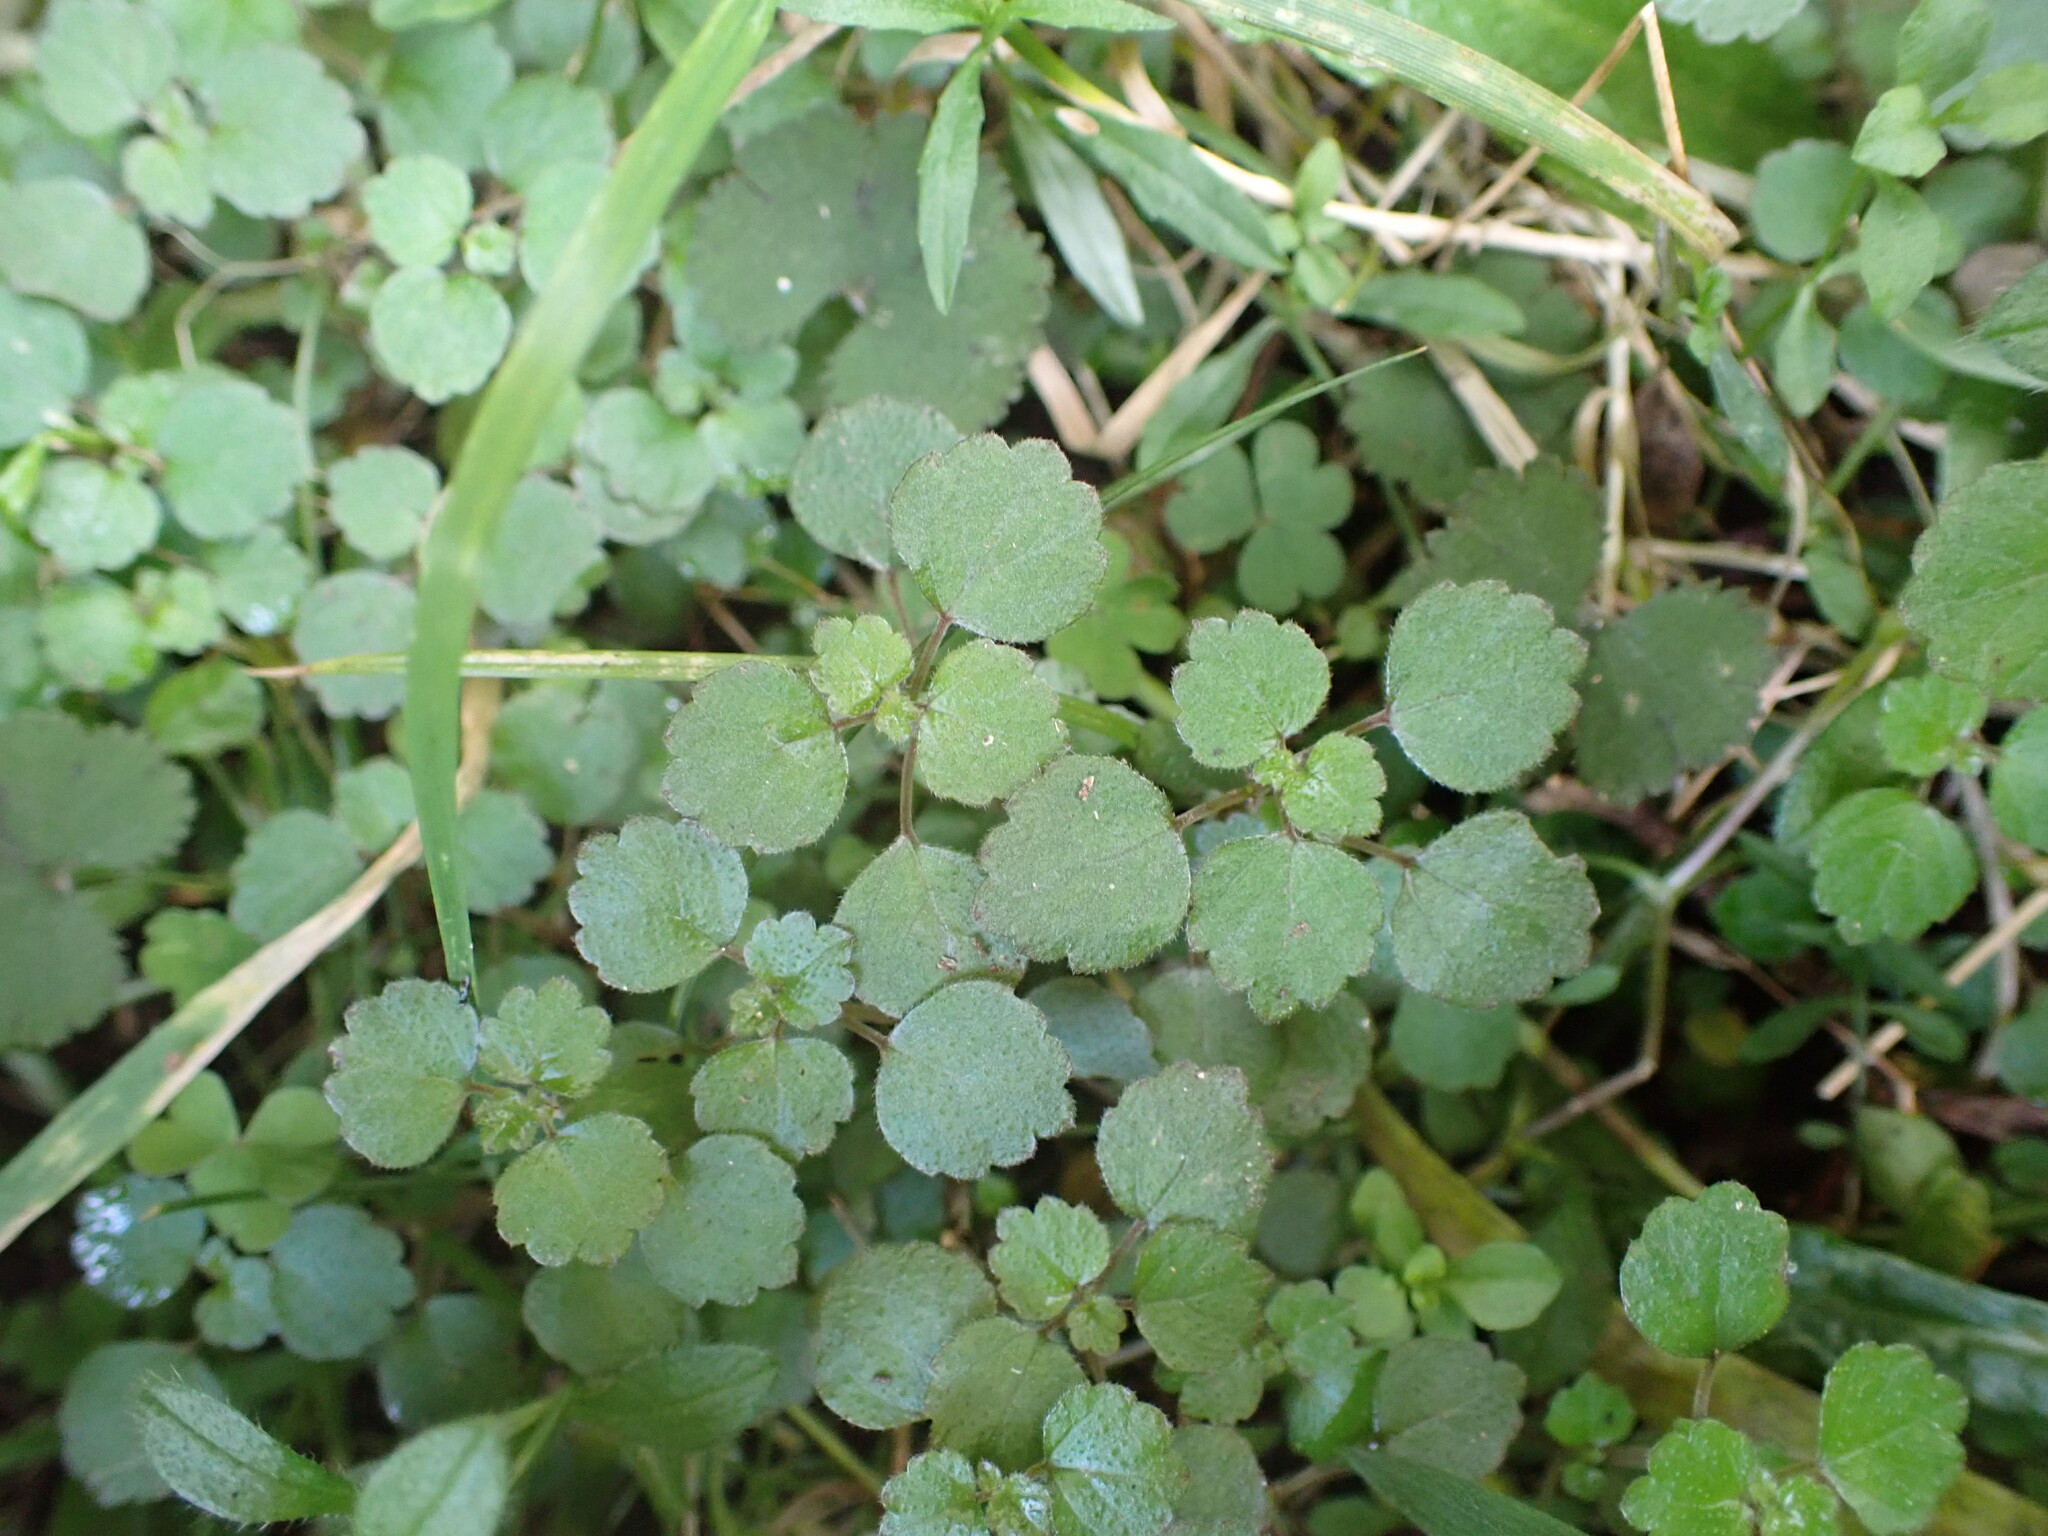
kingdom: Plantae
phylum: Tracheophyta
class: Magnoliopsida
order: Rosales
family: Urticaceae
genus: Australina
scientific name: Australina pusilla
